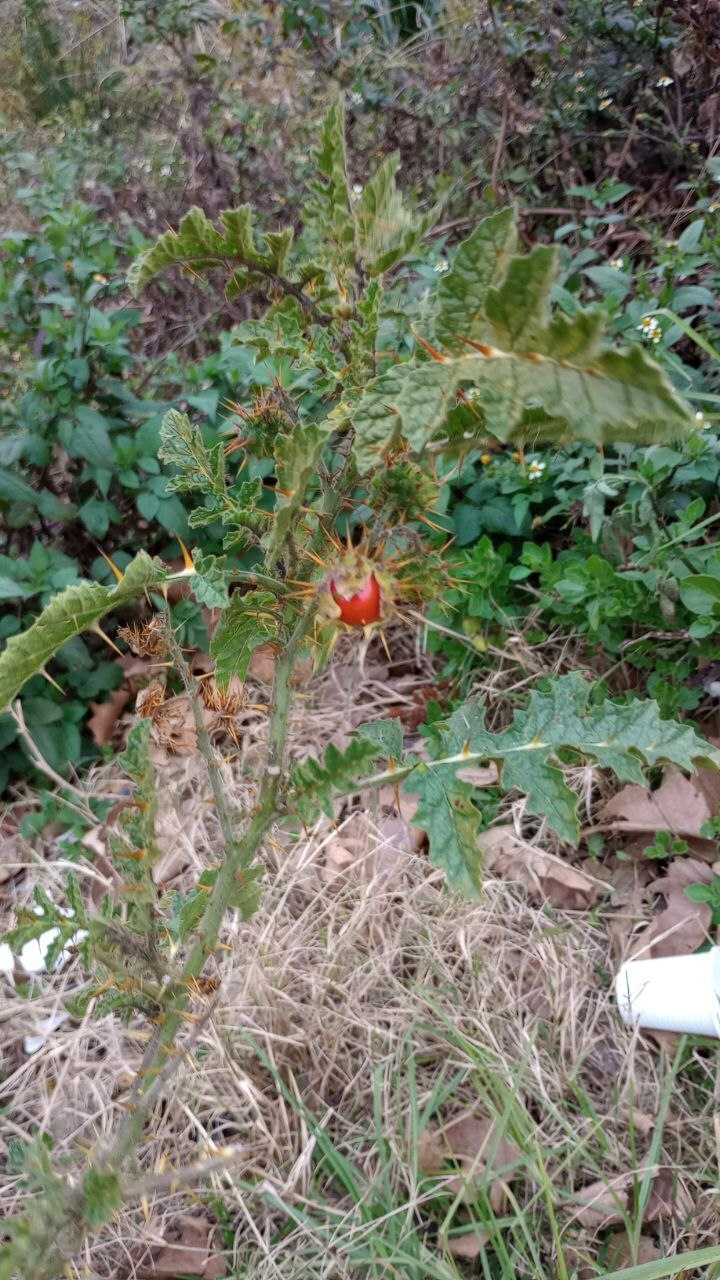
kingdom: Plantae
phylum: Tracheophyta
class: Magnoliopsida
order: Solanales
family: Solanaceae
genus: Solanum
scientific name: Solanum sisymbriifolium
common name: Red buffalo-bur
